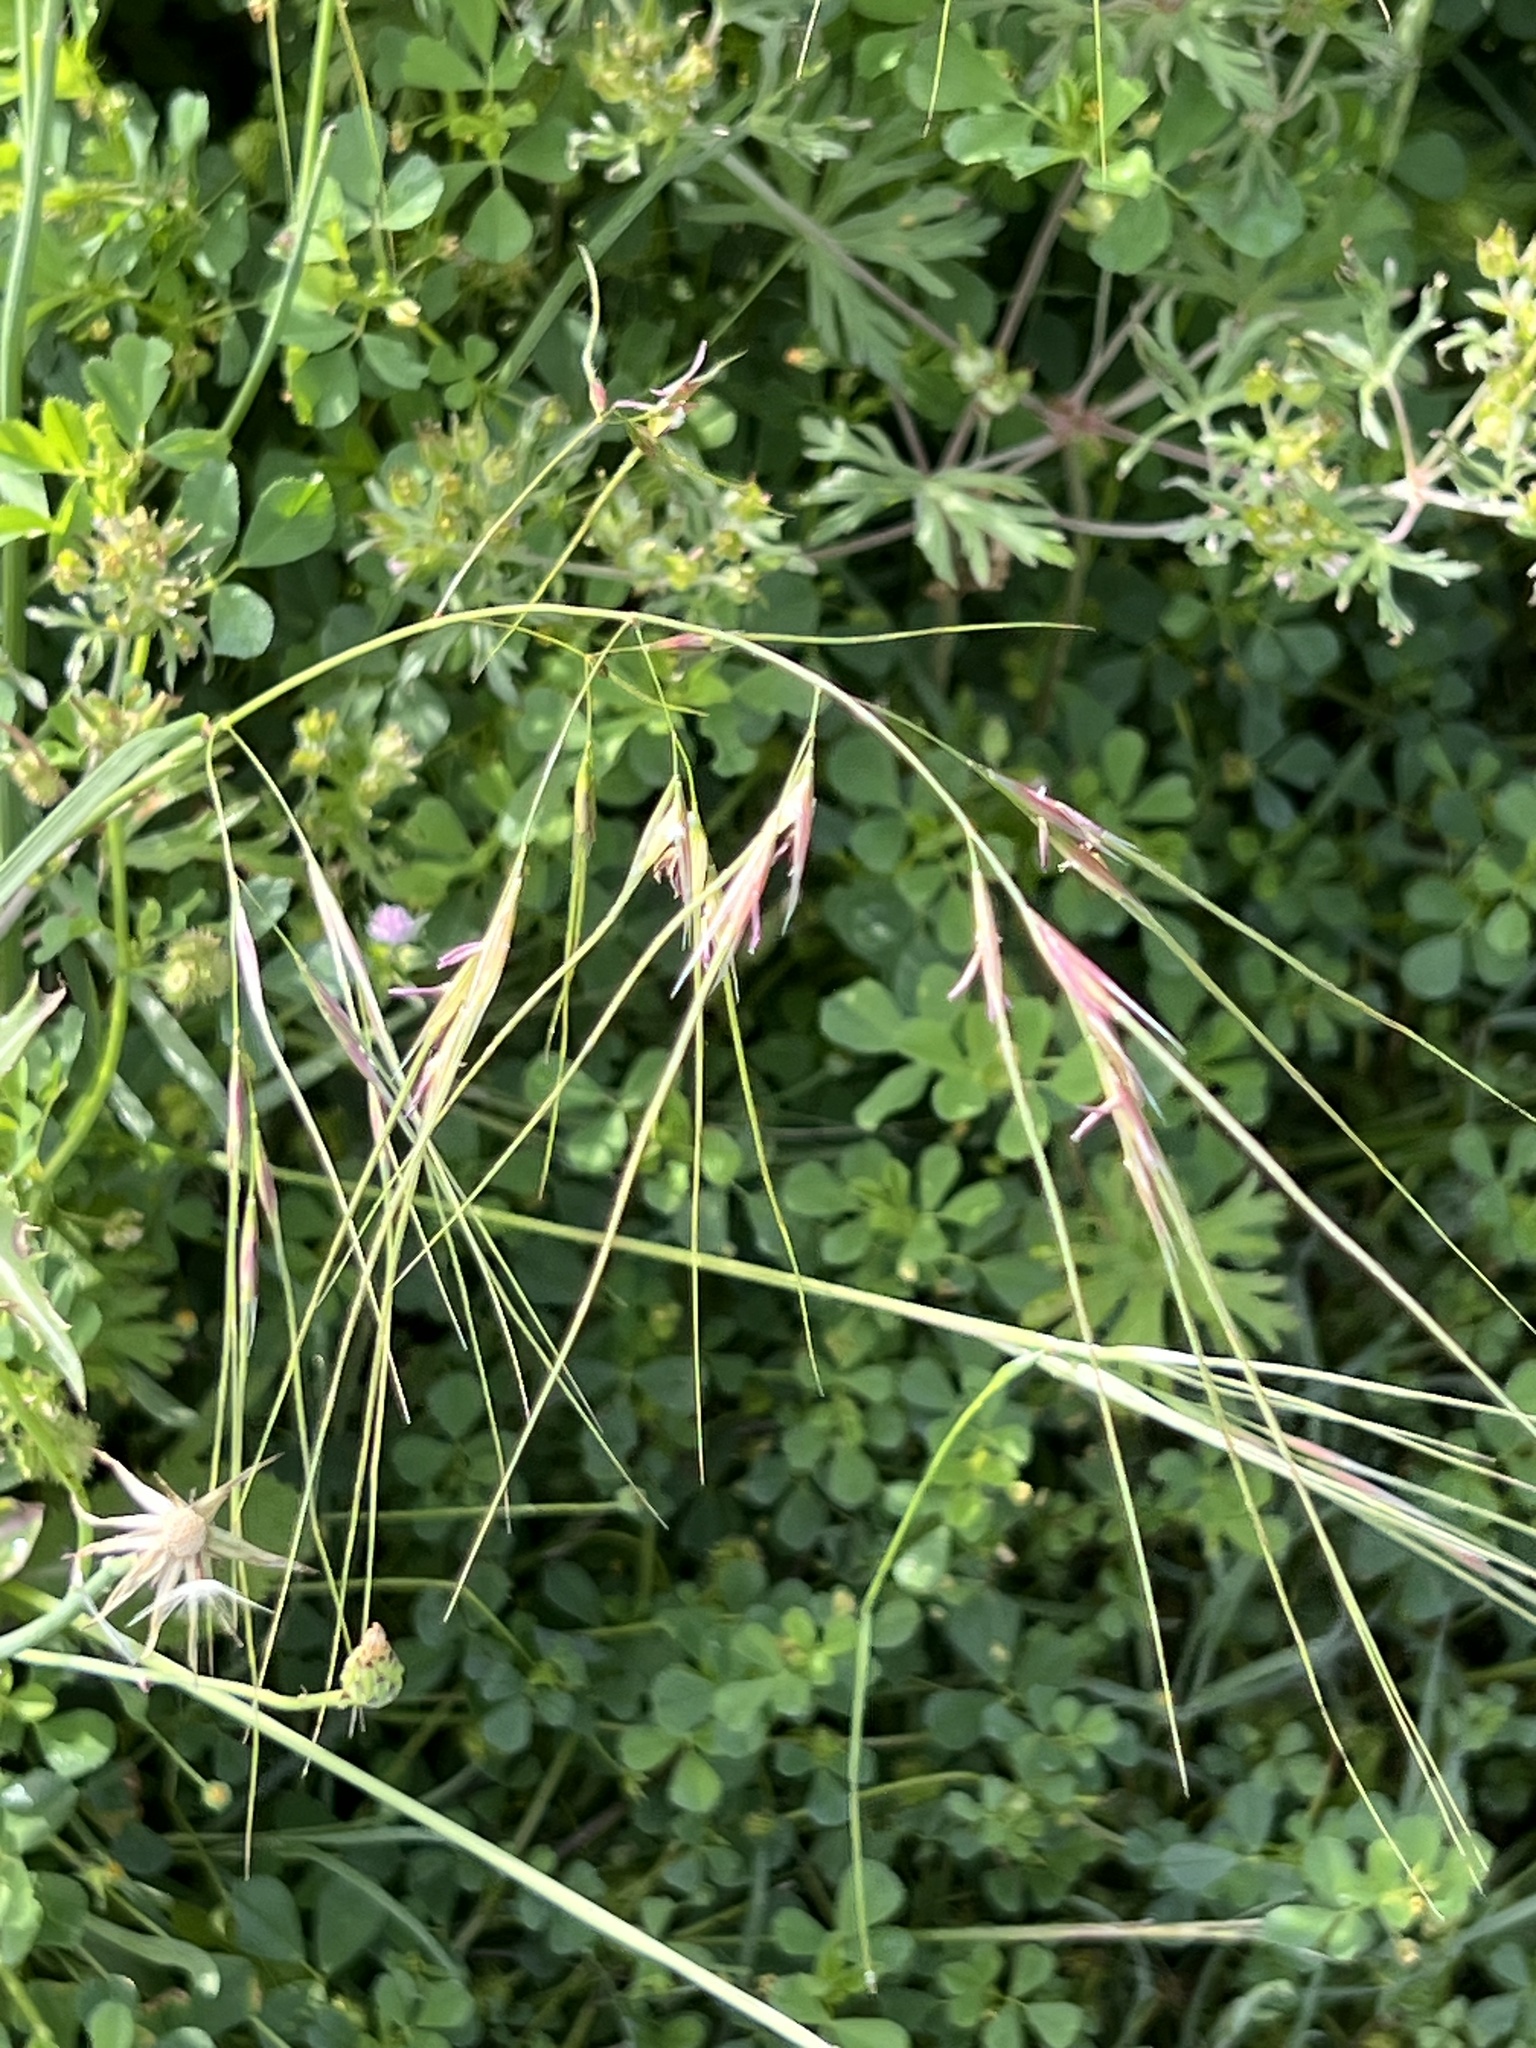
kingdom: Plantae
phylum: Tracheophyta
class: Liliopsida
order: Poales
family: Poaceae
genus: Nassella
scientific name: Nassella leucotricha
